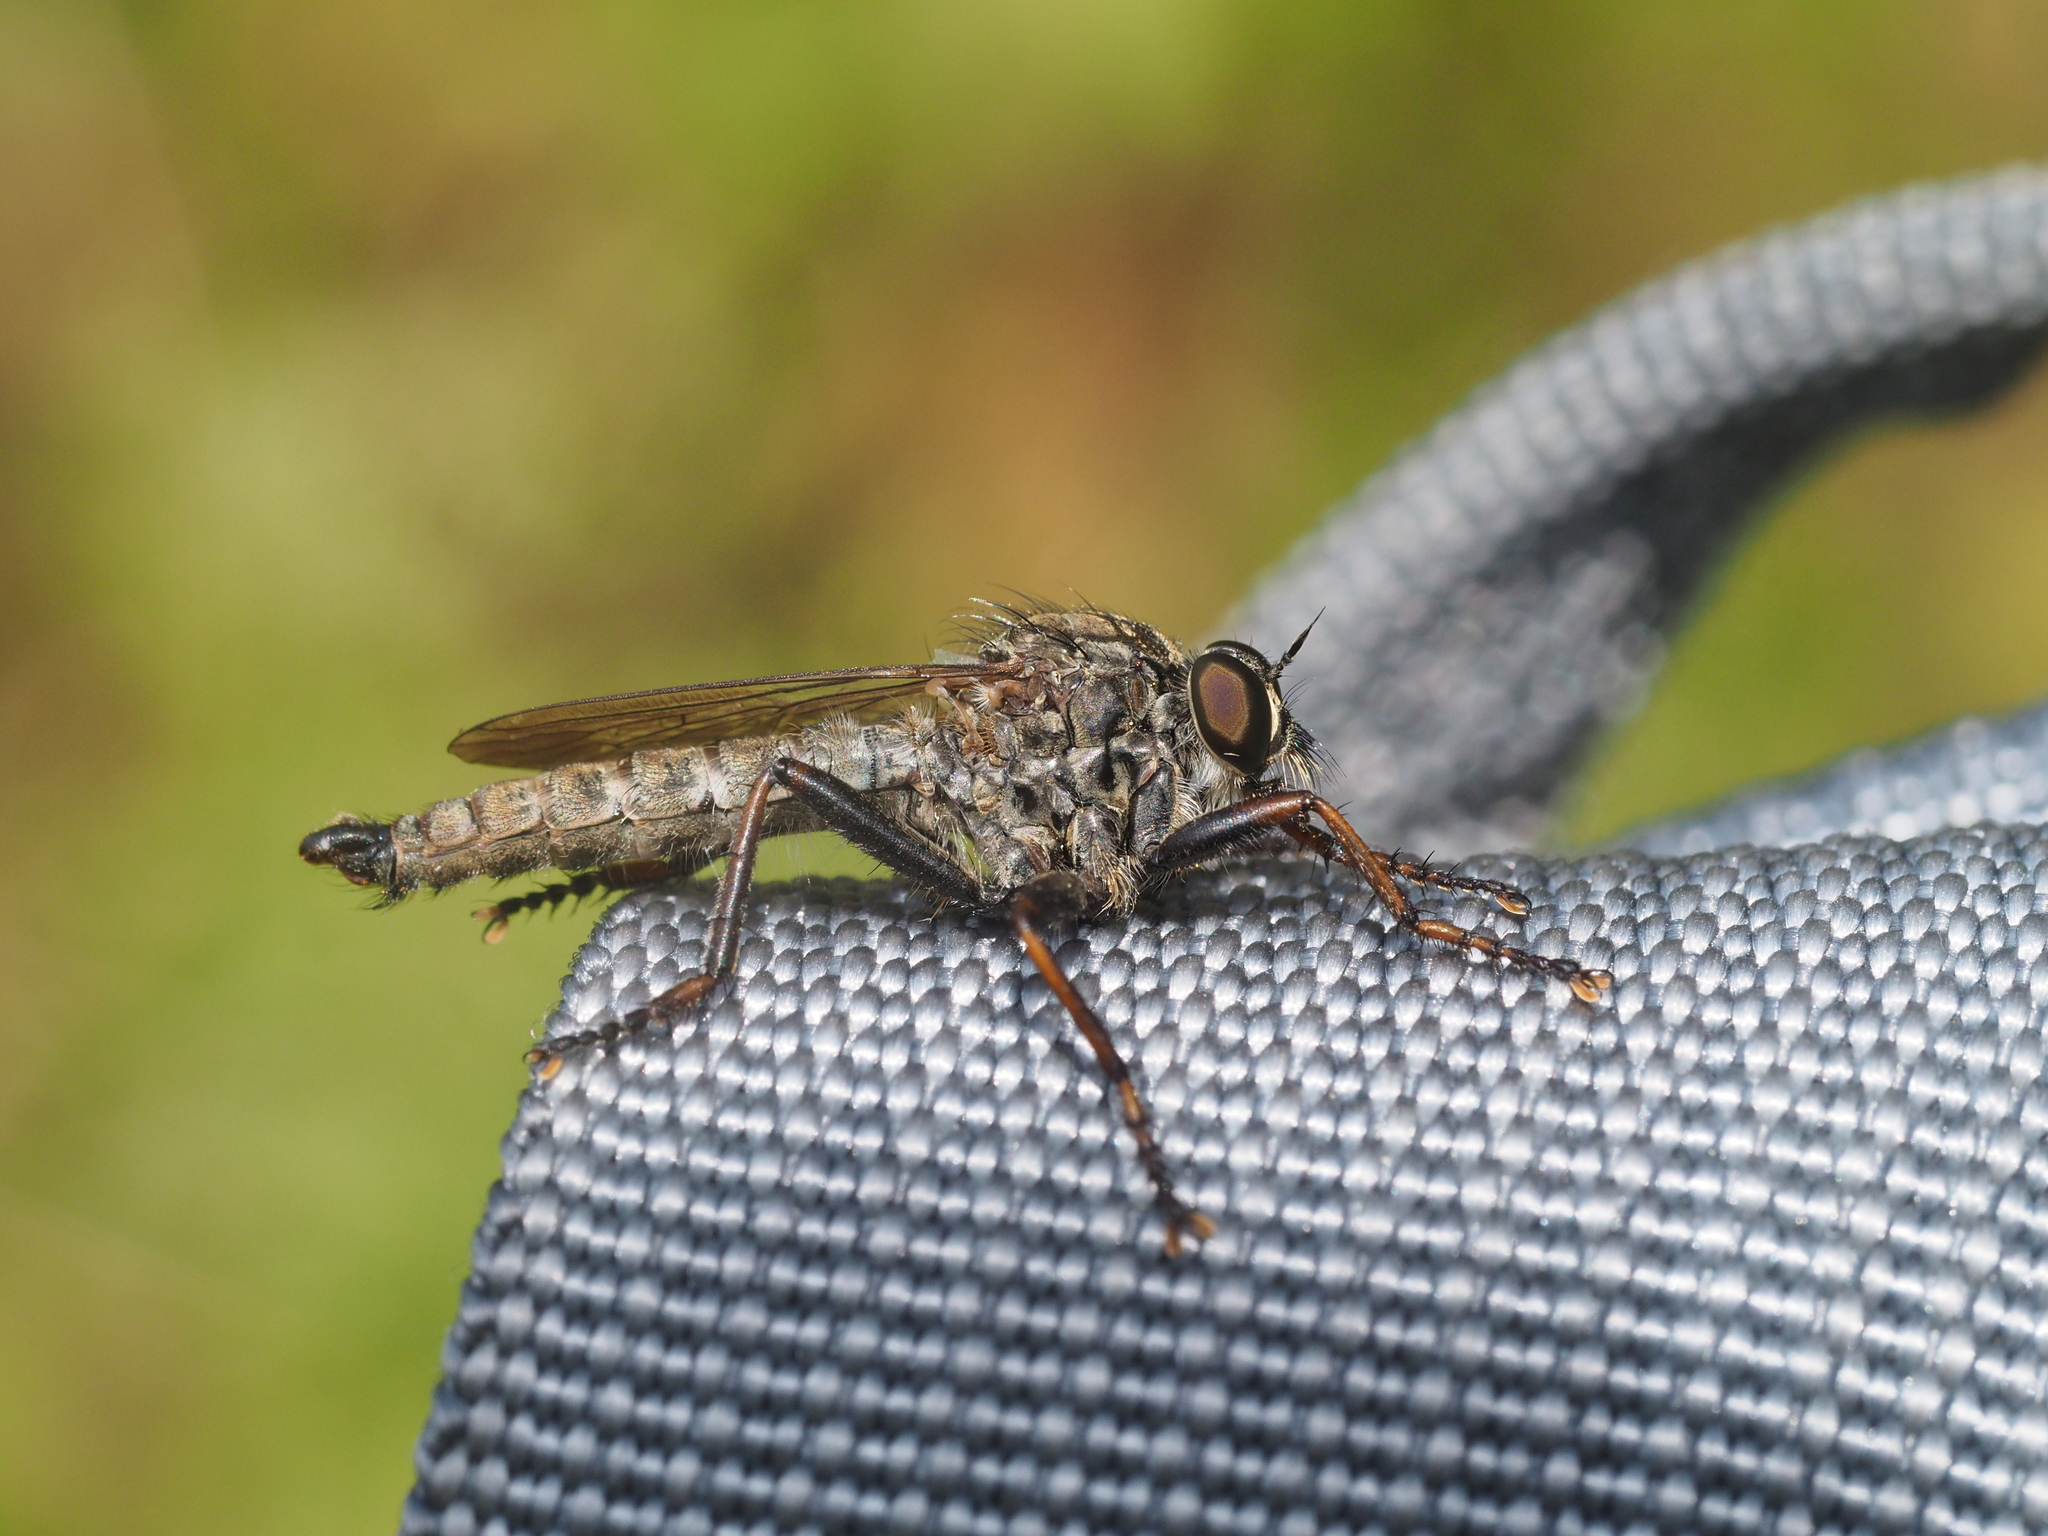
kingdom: Animalia
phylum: Arthropoda
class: Insecta
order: Diptera
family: Asilidae
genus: Machimus
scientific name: Machimus atricapillus
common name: Kite-tailed robberfly
